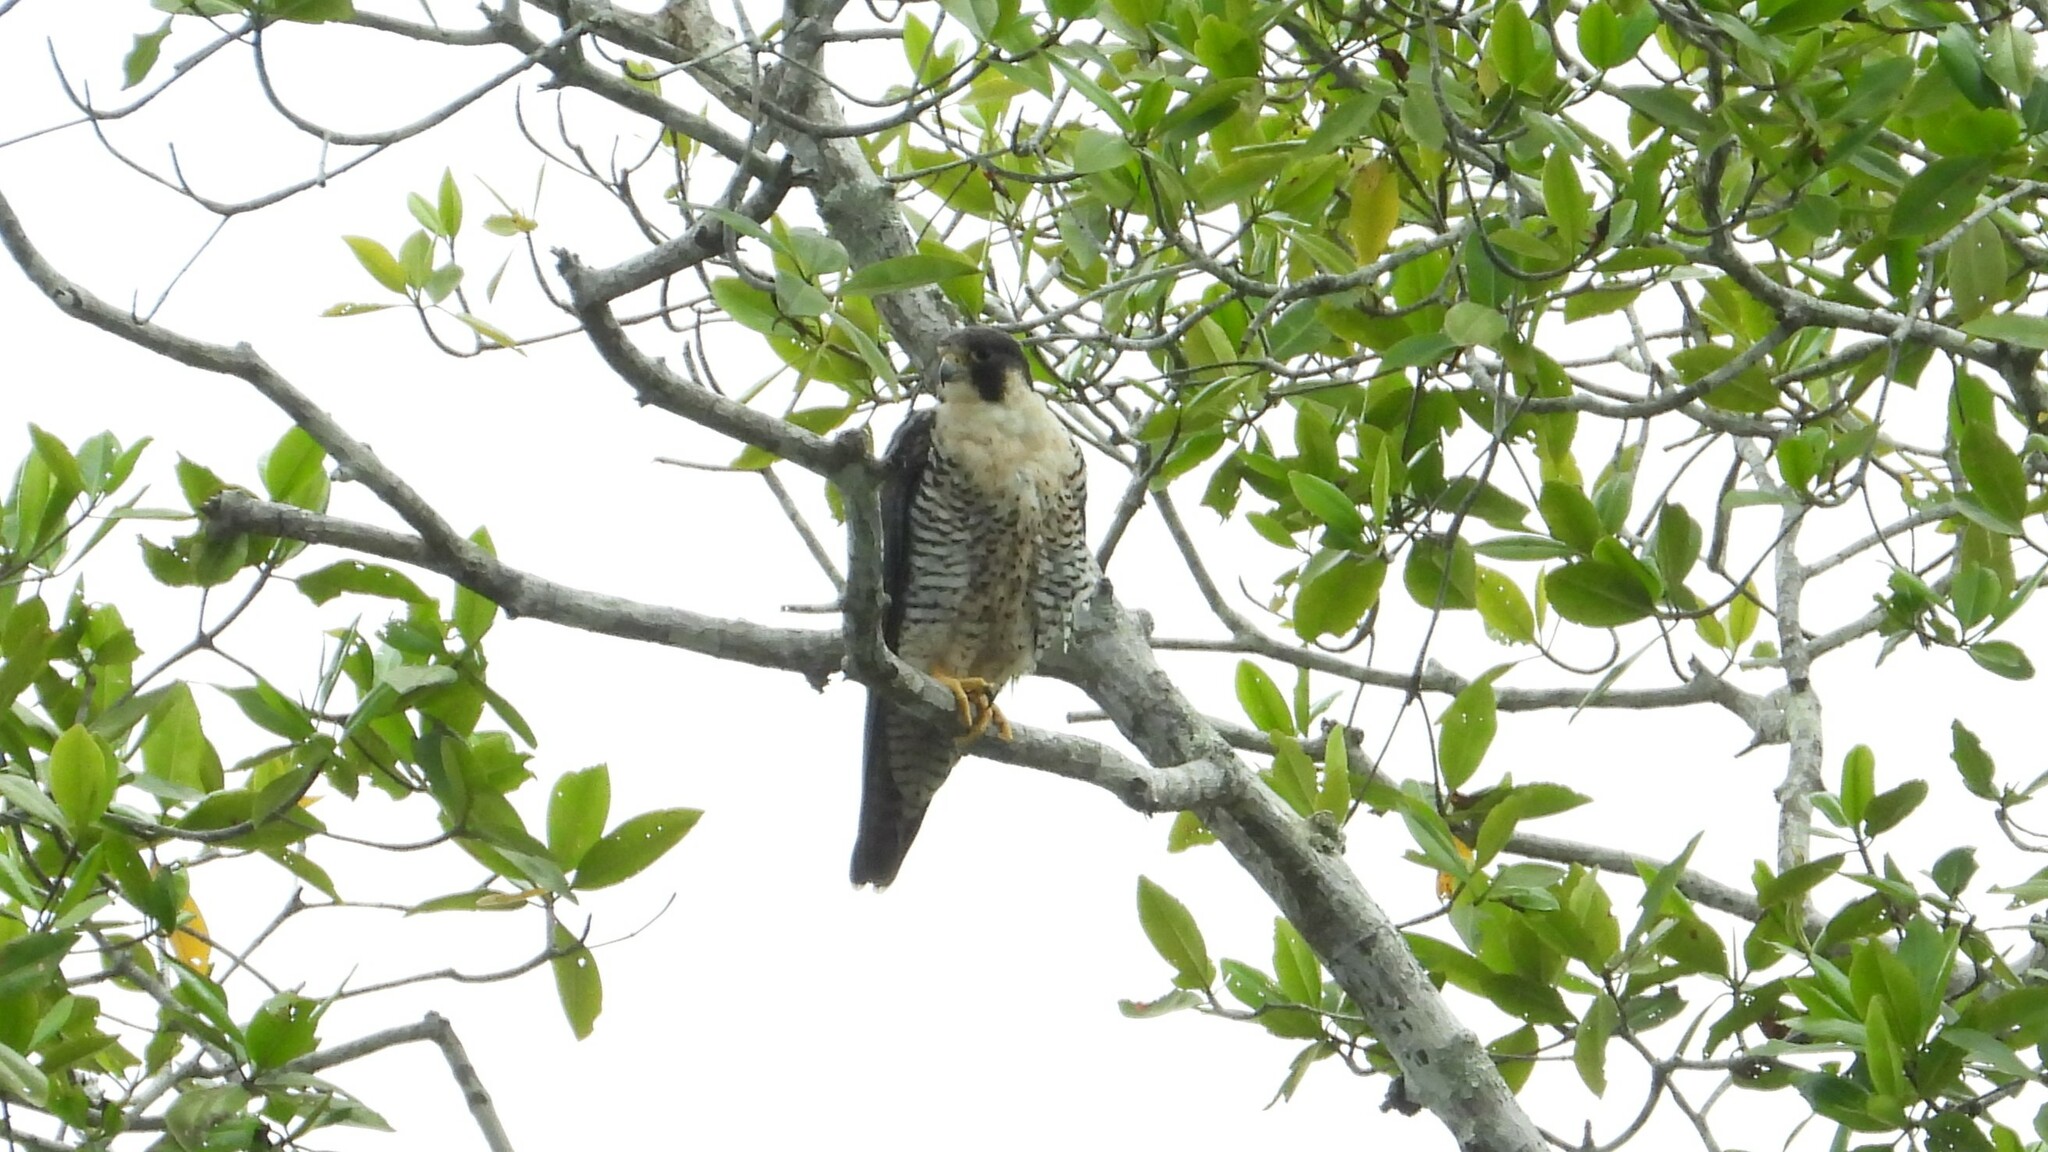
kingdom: Animalia
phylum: Chordata
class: Aves
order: Falconiformes
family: Falconidae
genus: Falco
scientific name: Falco peregrinus
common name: Peregrine falcon
